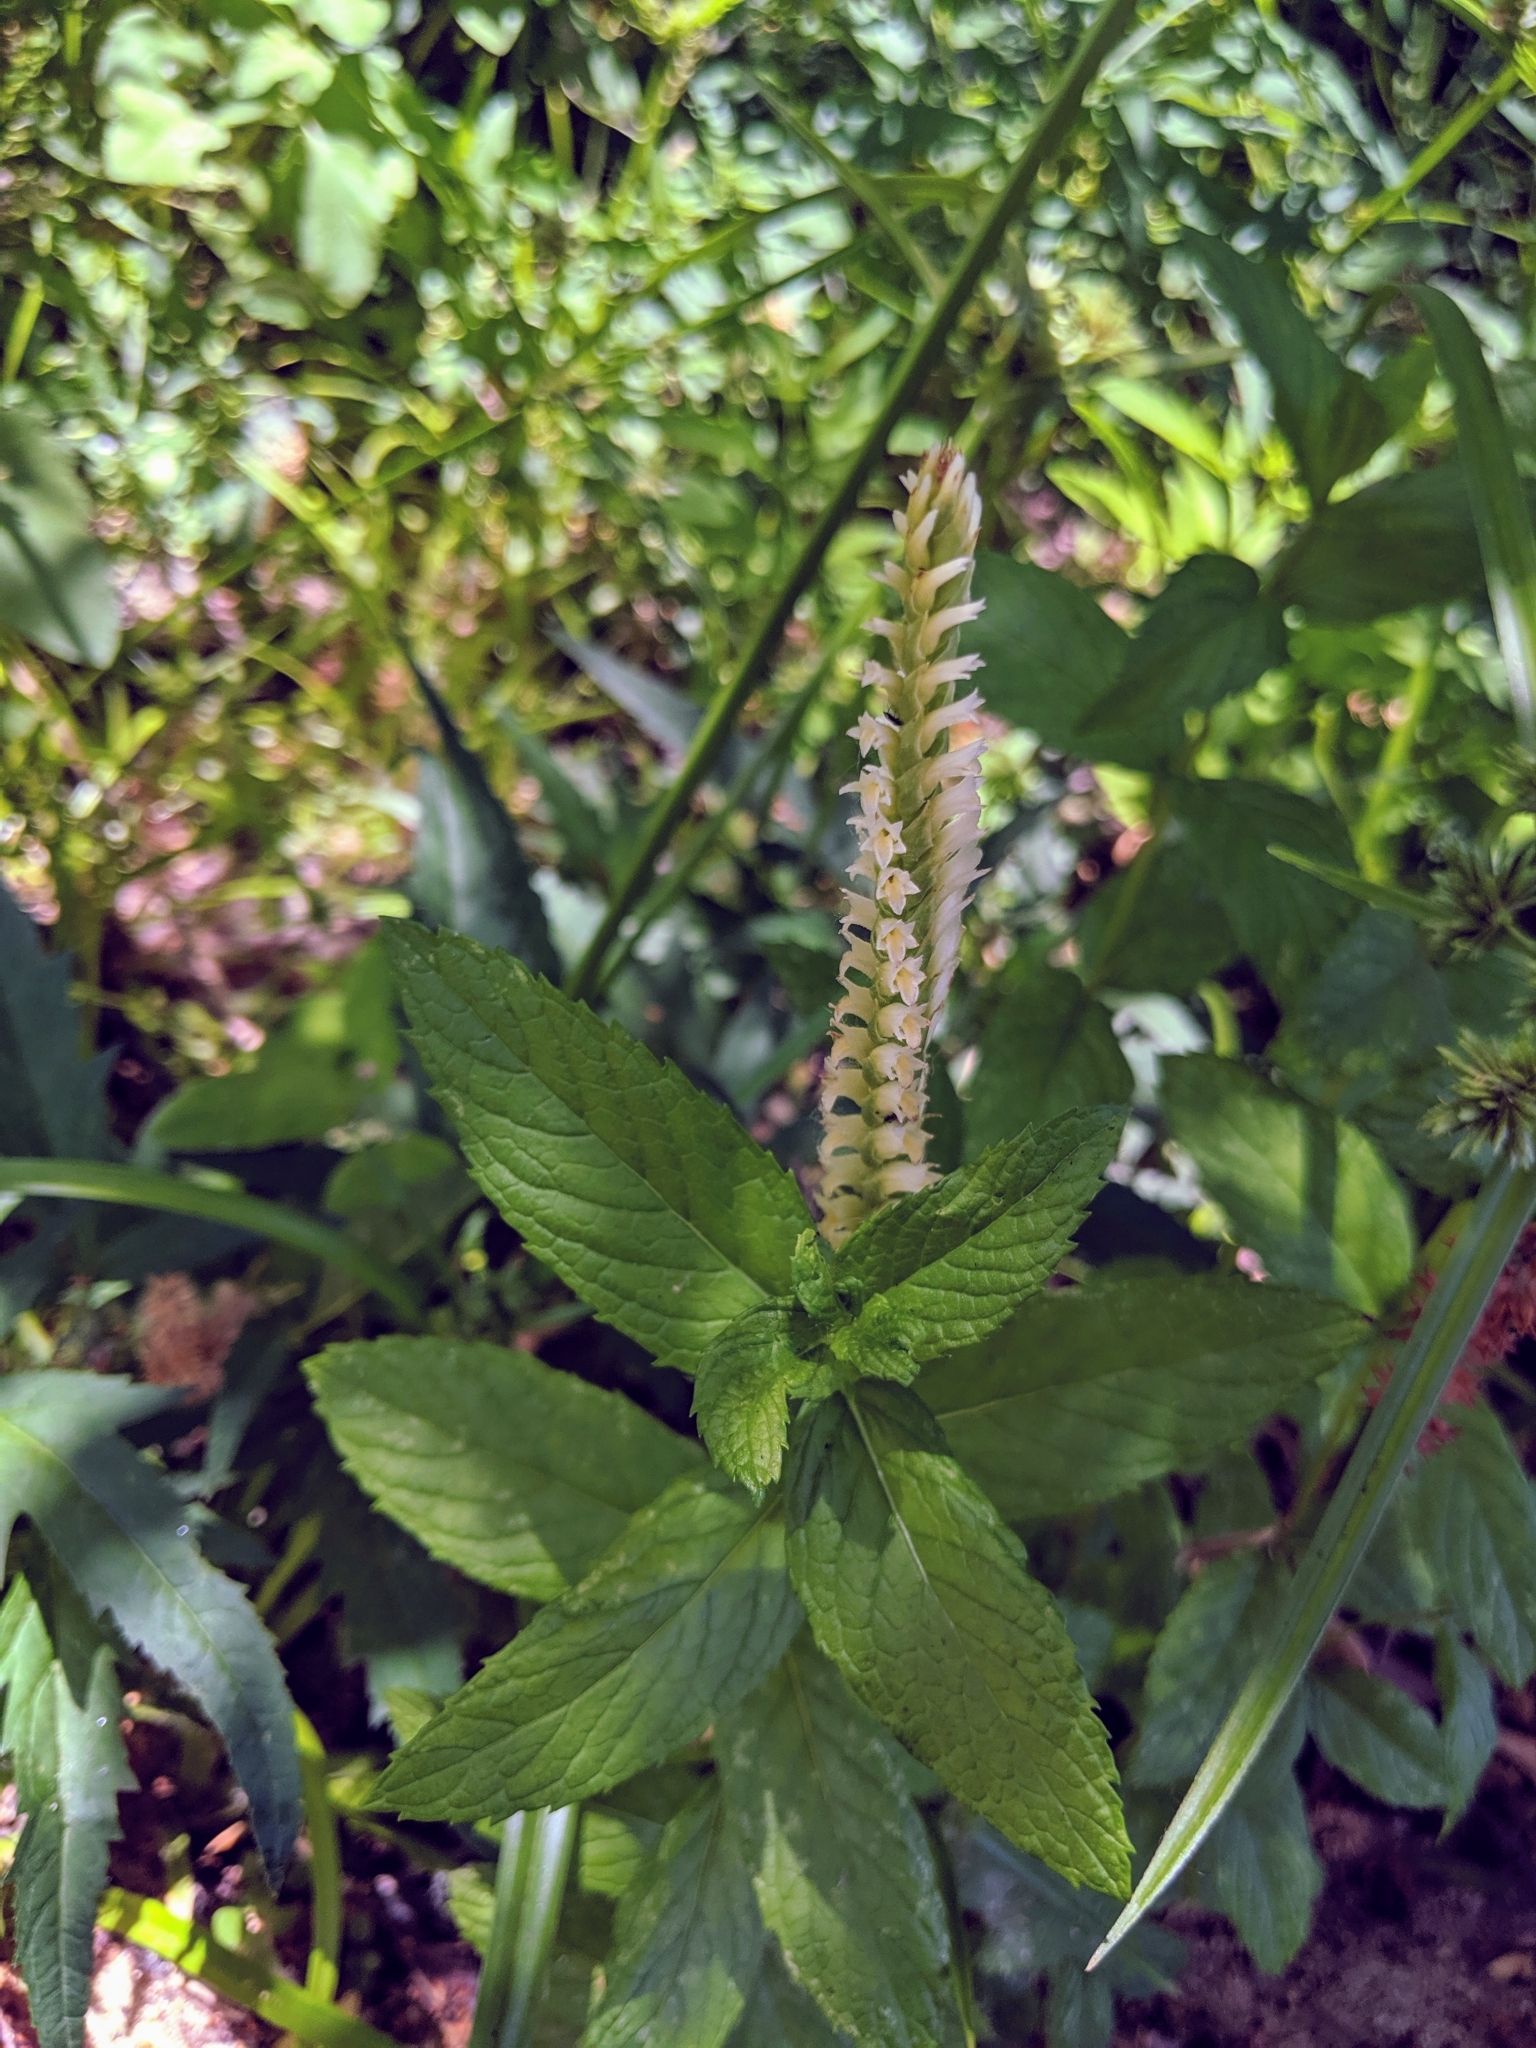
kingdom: Plantae
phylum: Tracheophyta
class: Liliopsida
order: Asparagales
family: Orchidaceae
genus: Spiranthes
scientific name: Spiranthes porrifolia
